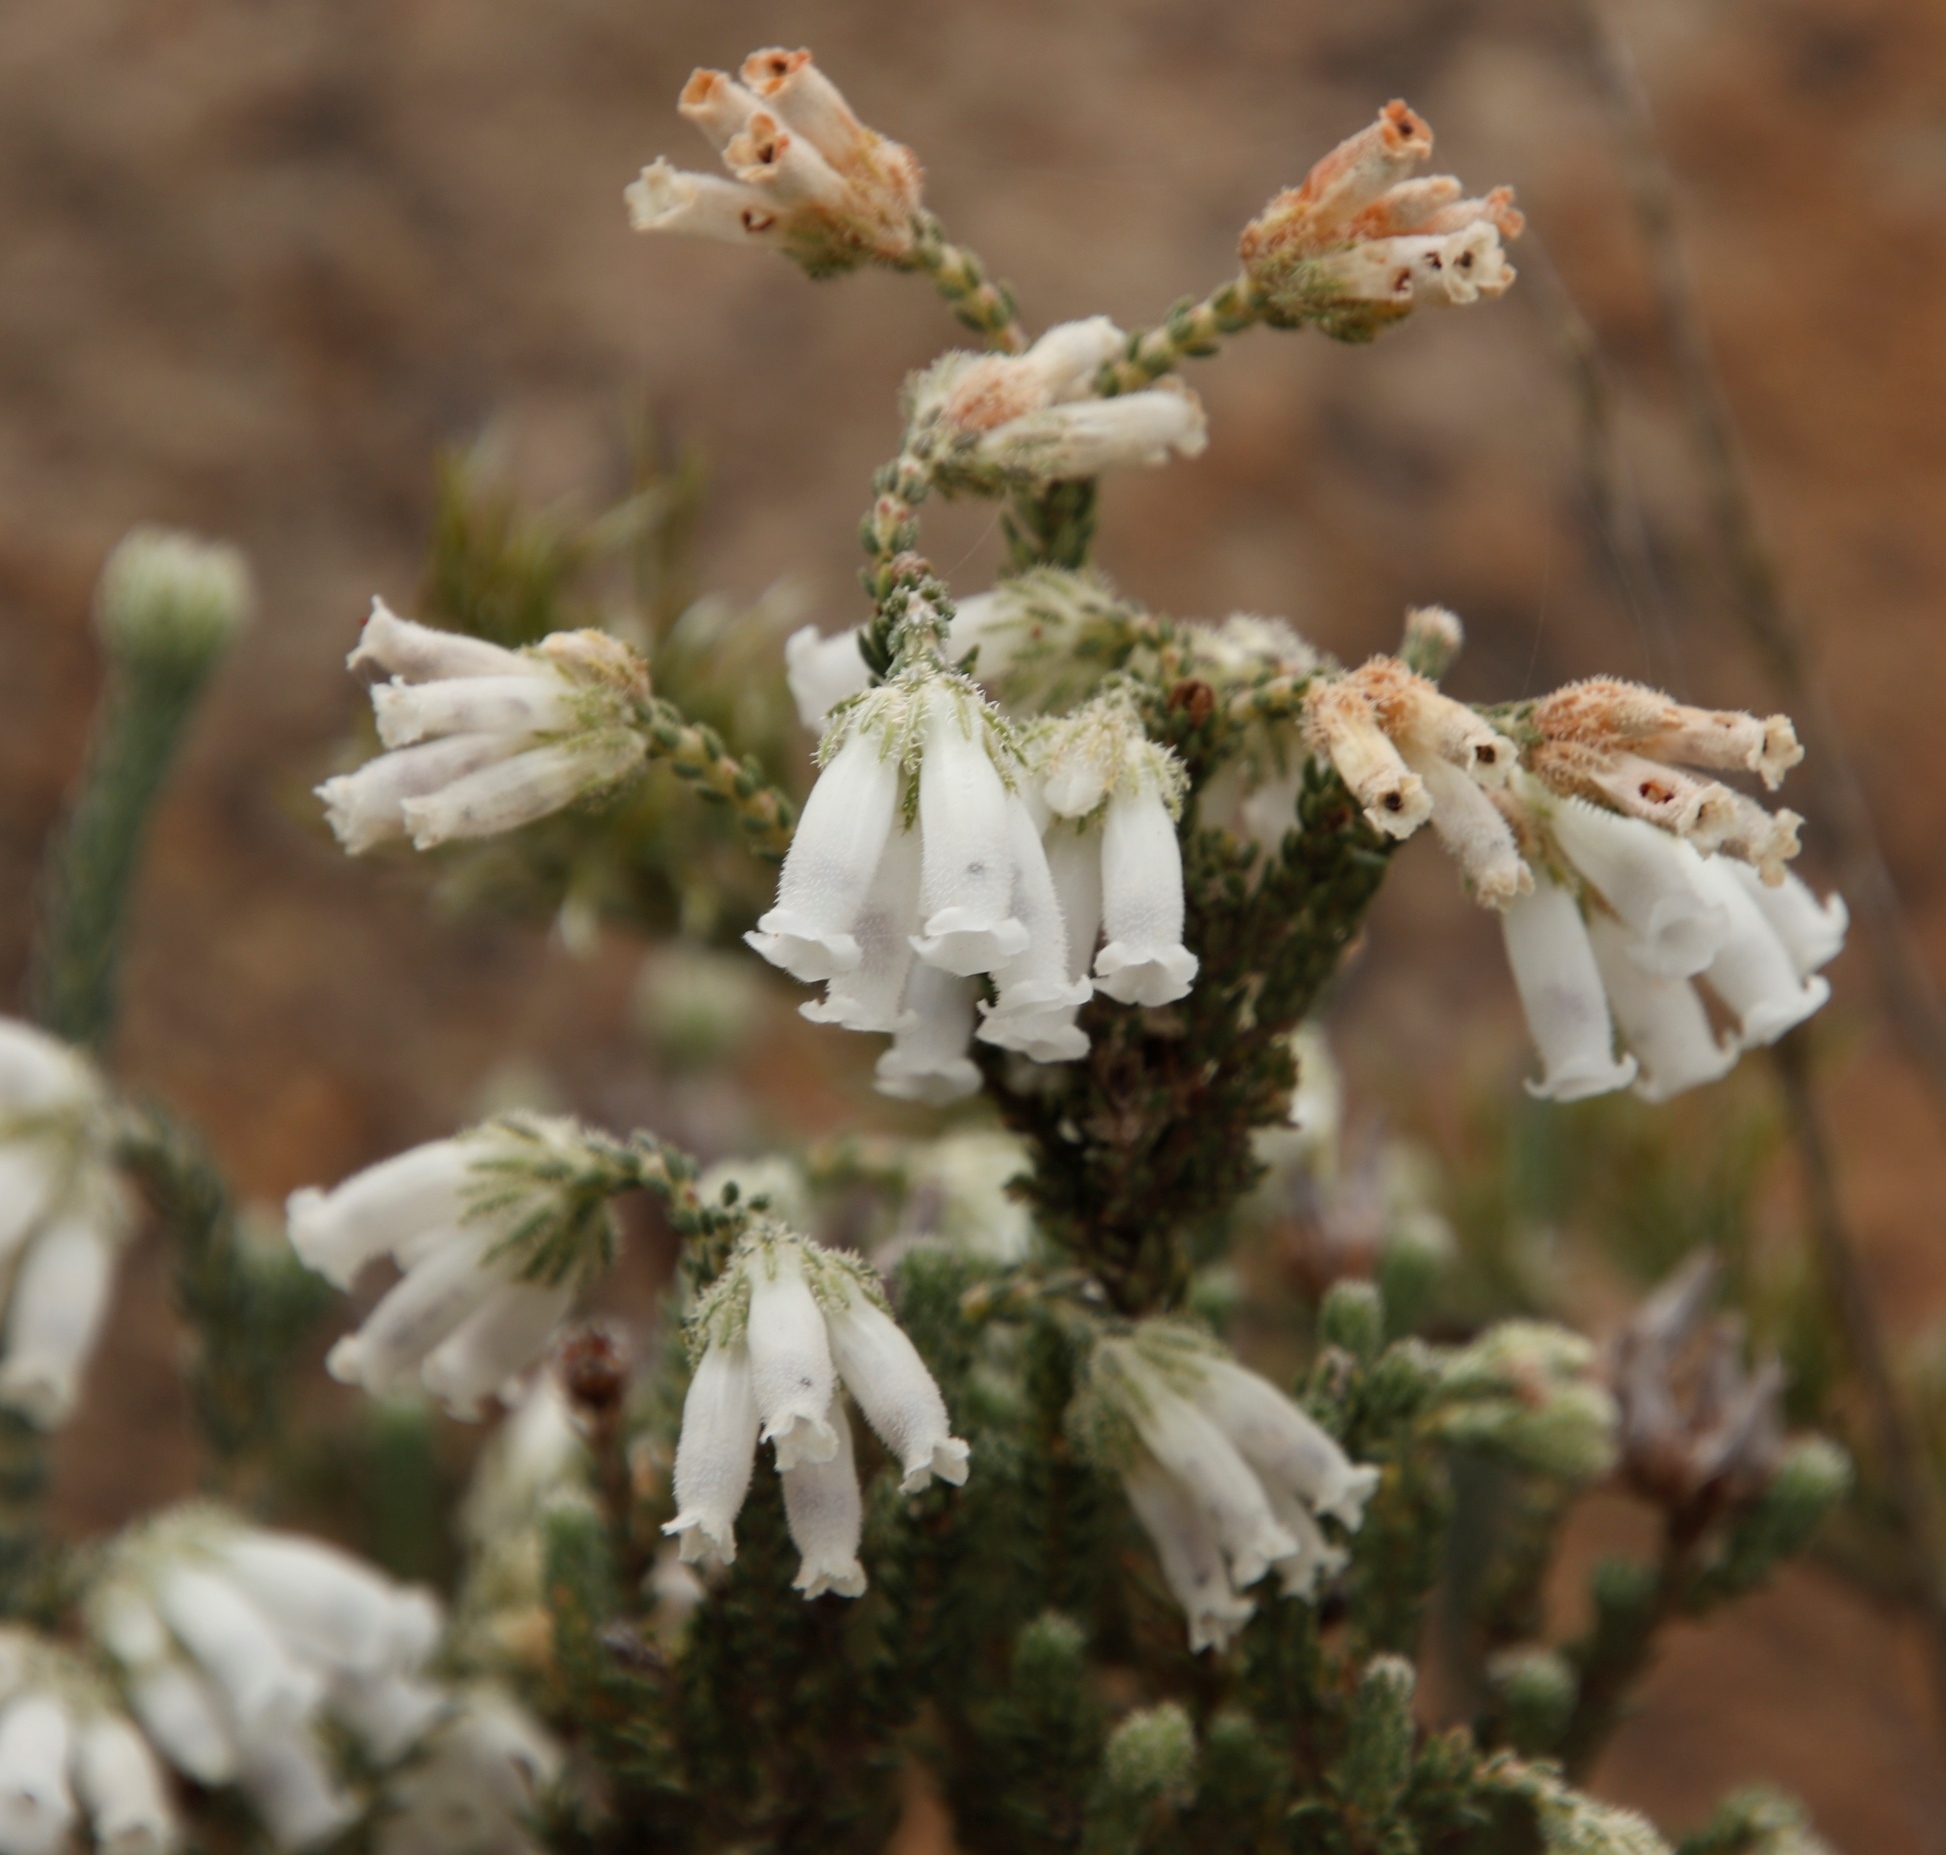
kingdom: Plantae
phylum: Tracheophyta
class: Magnoliopsida
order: Ericales
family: Ericaceae
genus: Erica
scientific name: Erica strigilifolia
